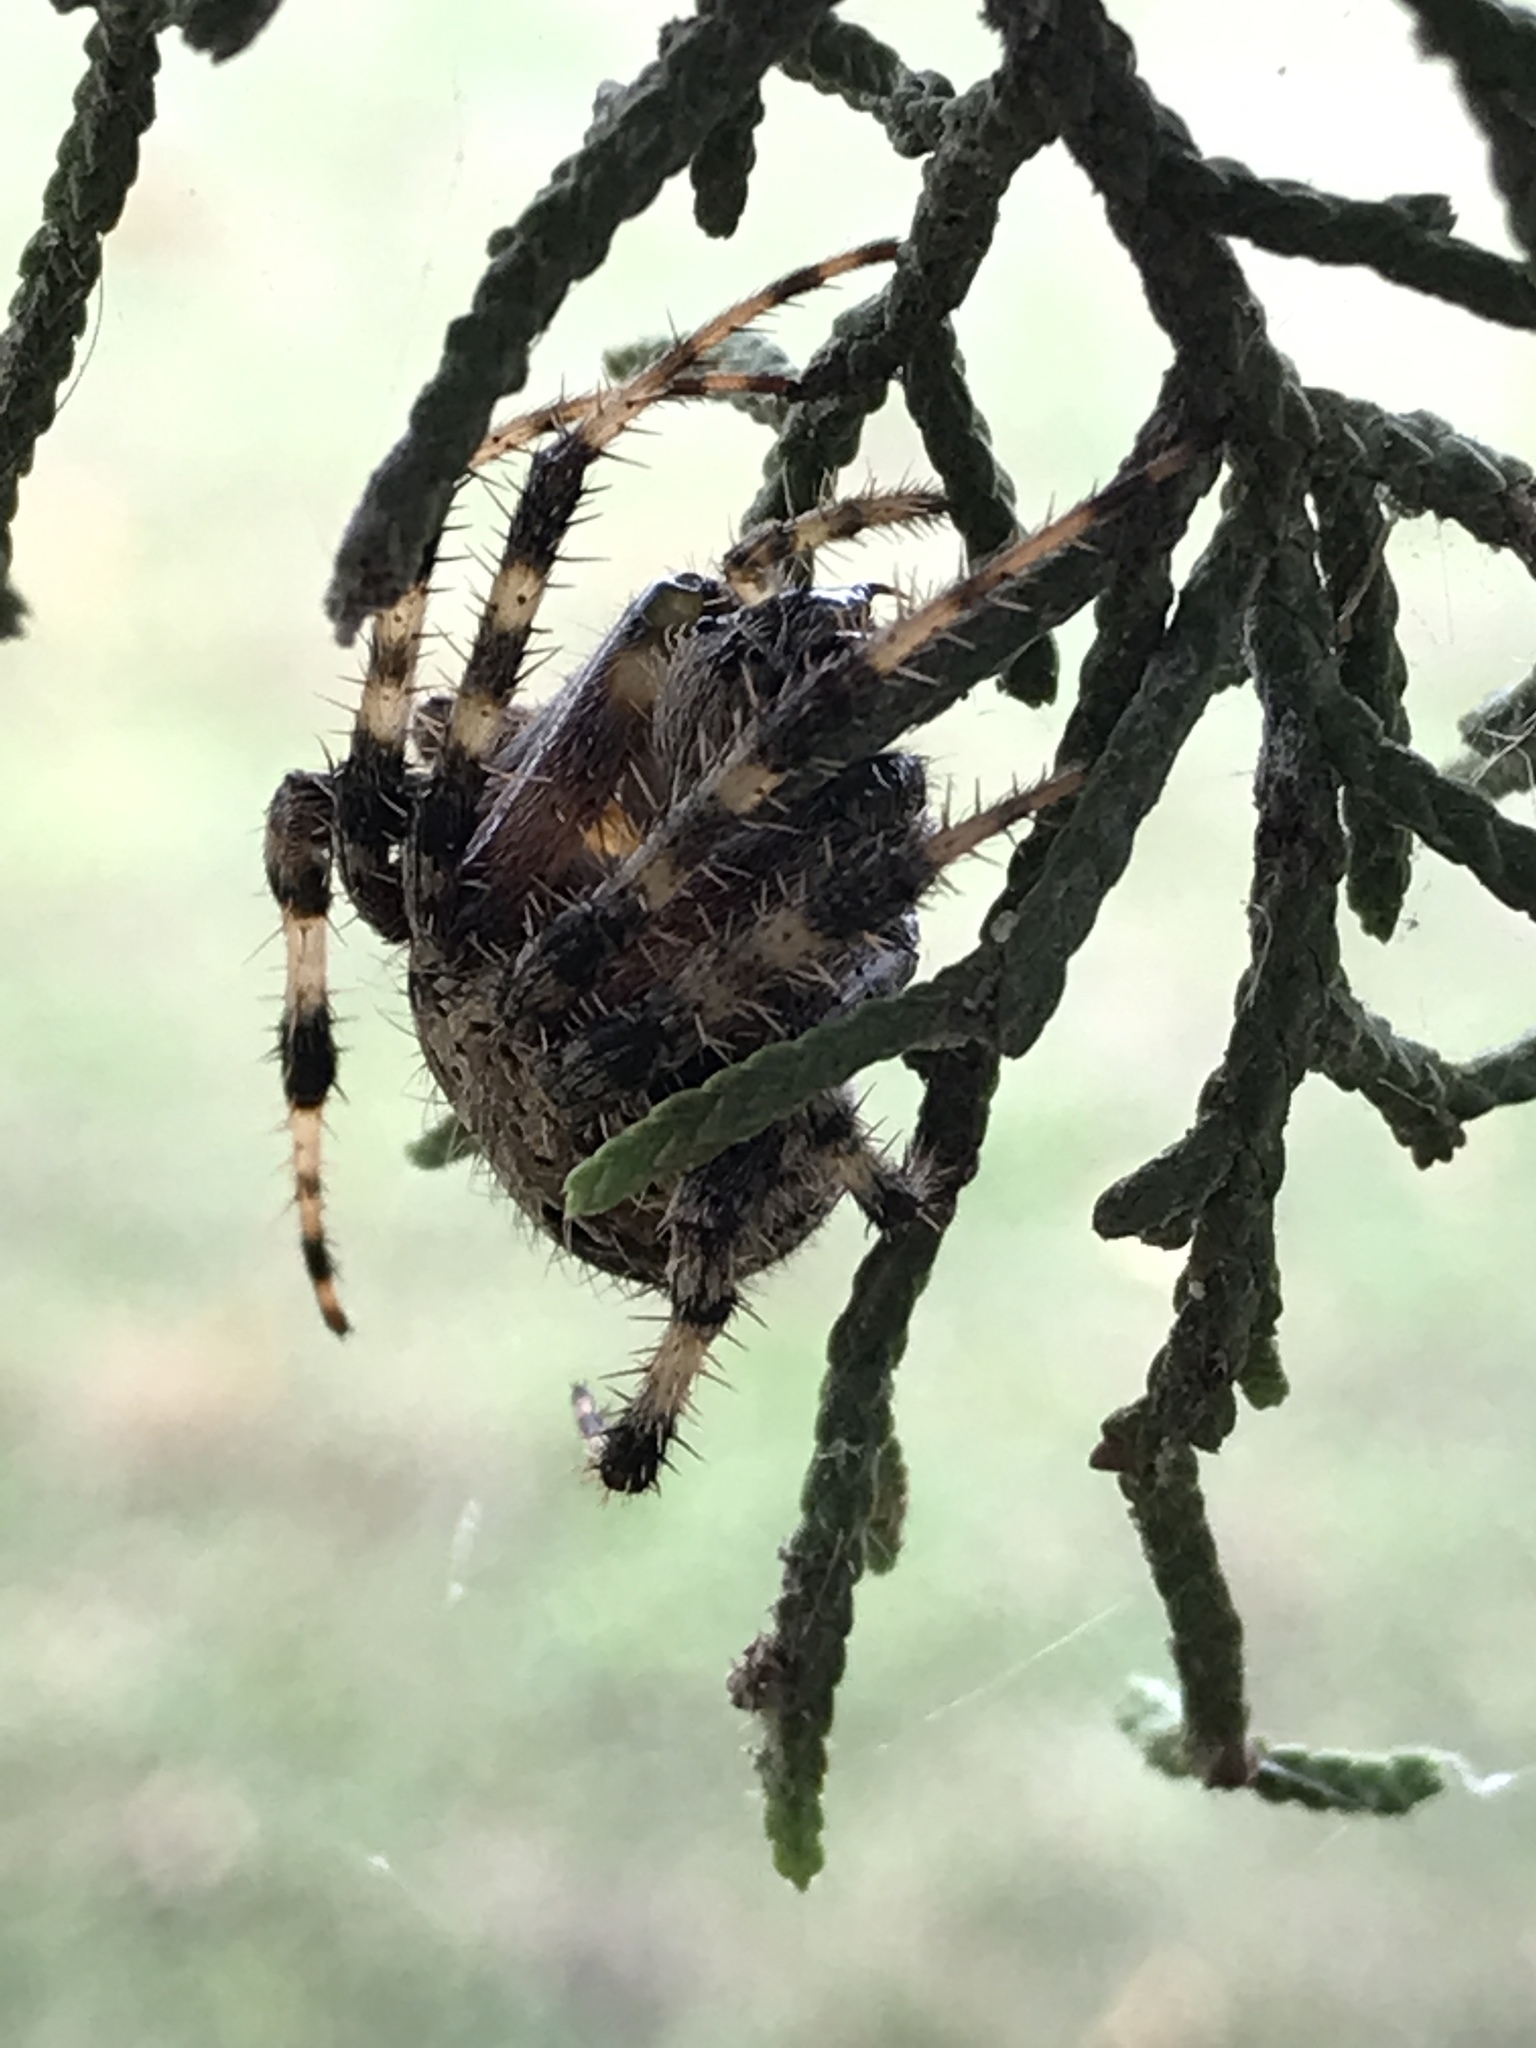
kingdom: Animalia
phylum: Arthropoda
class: Arachnida
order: Araneae
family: Araneidae
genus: Neoscona
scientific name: Neoscona crucifera
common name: Spotted orbweaver
